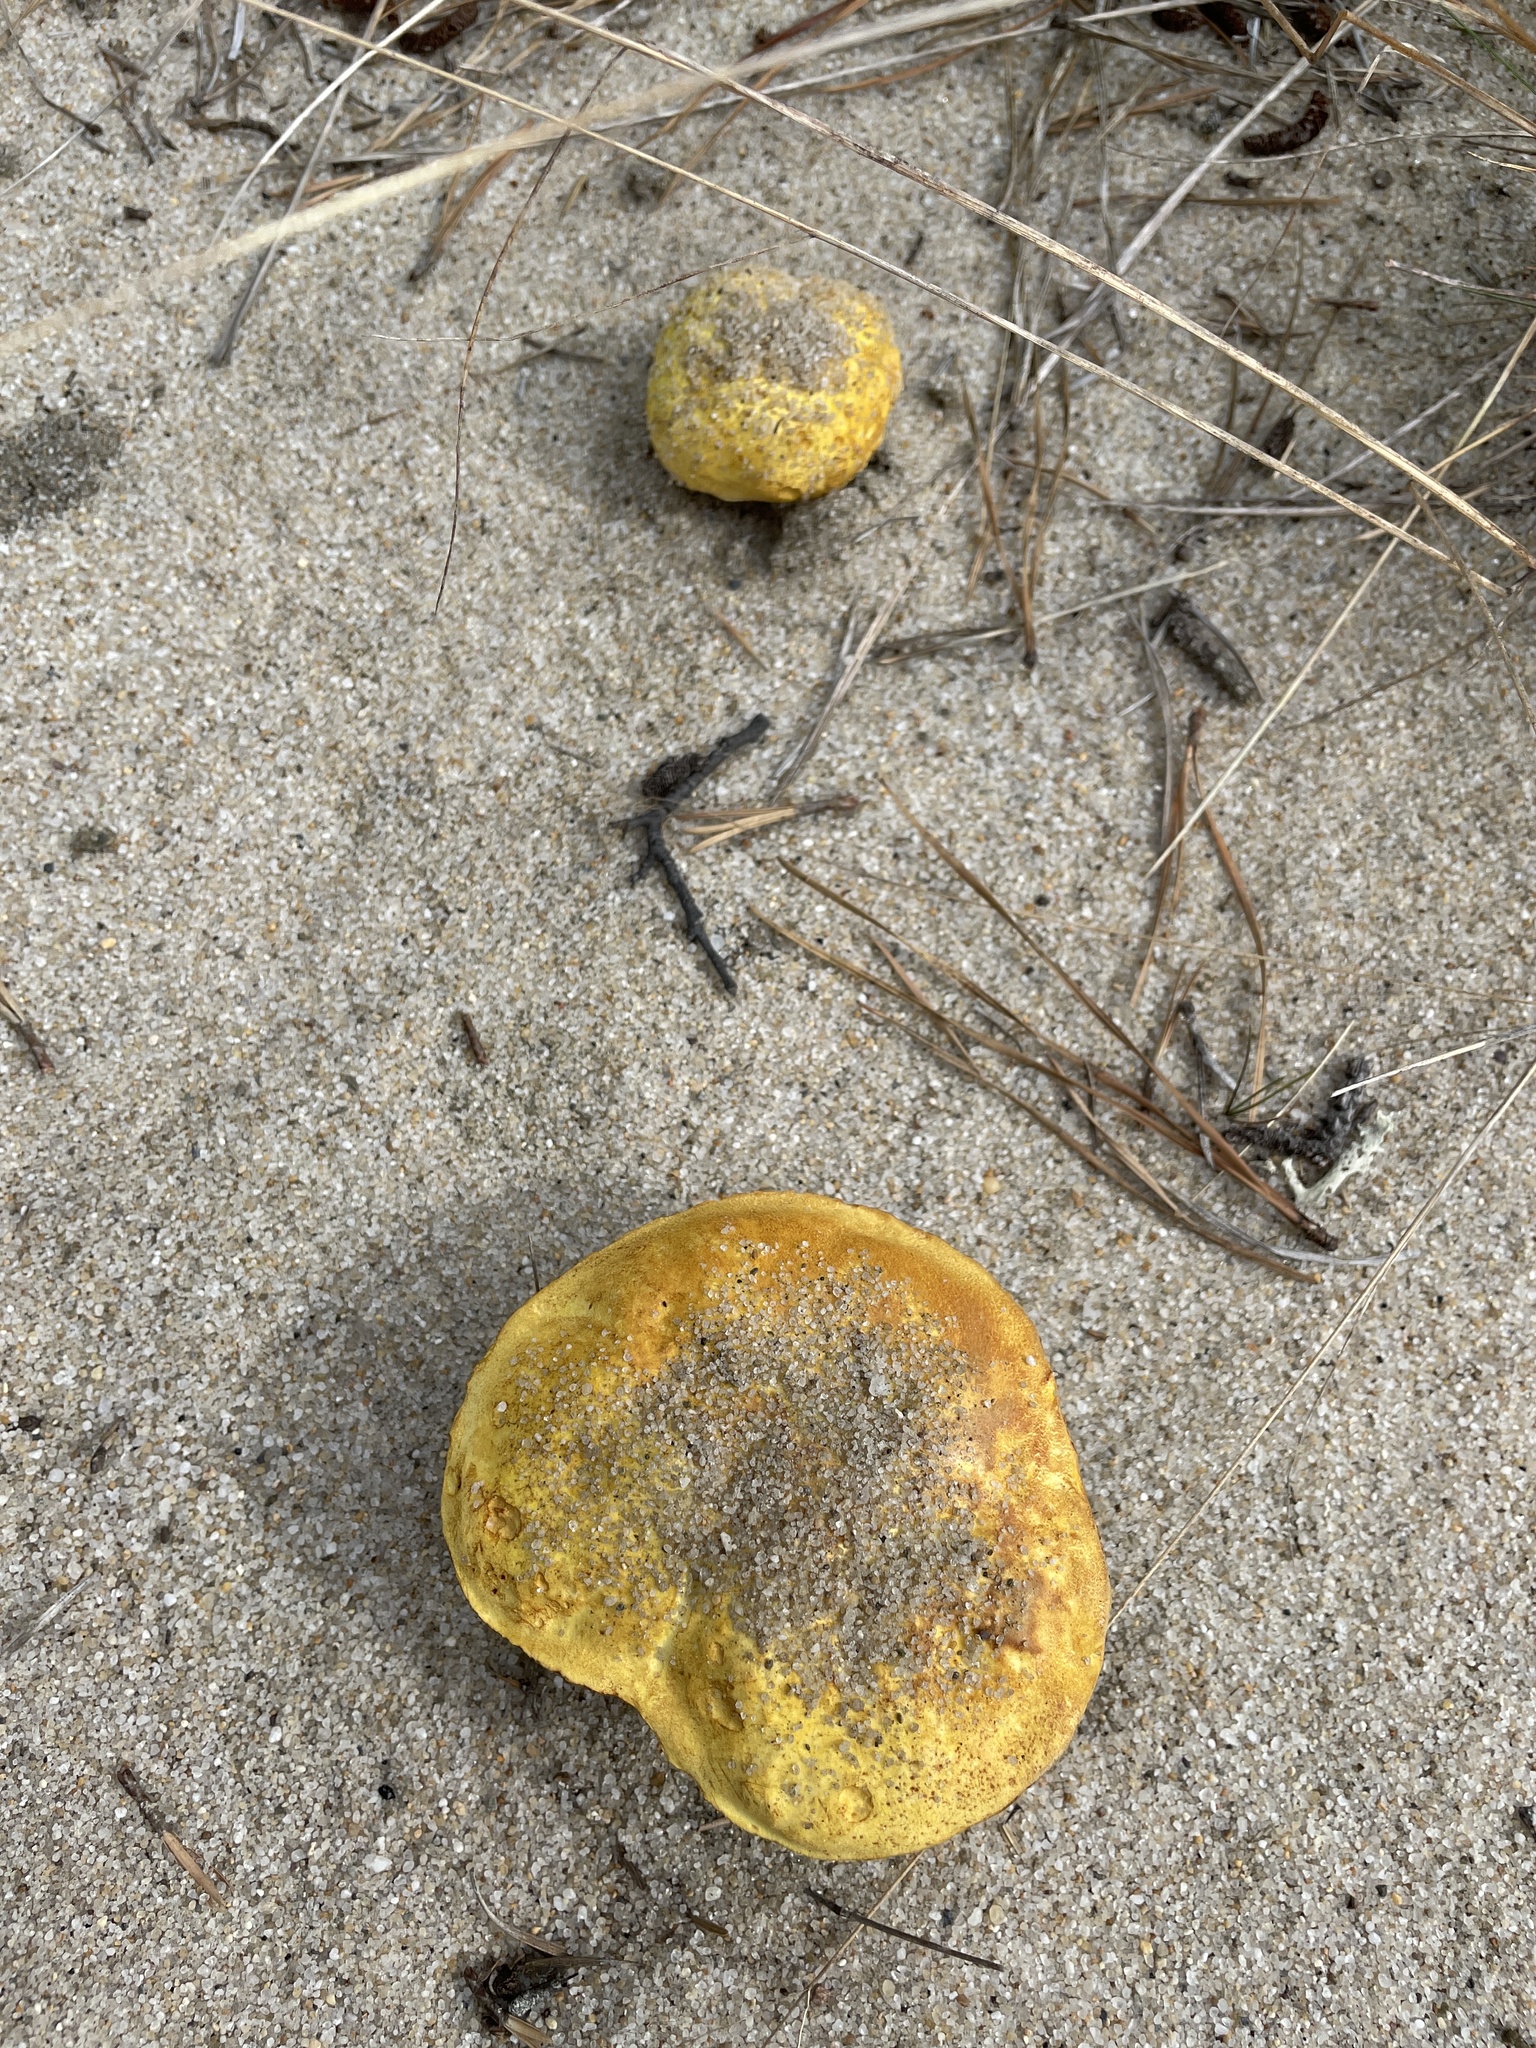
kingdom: Fungi
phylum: Basidiomycota
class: Agaricomycetes
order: Boletales
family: Boletaceae
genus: Alessioporus
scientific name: Alessioporus rubriflavus
